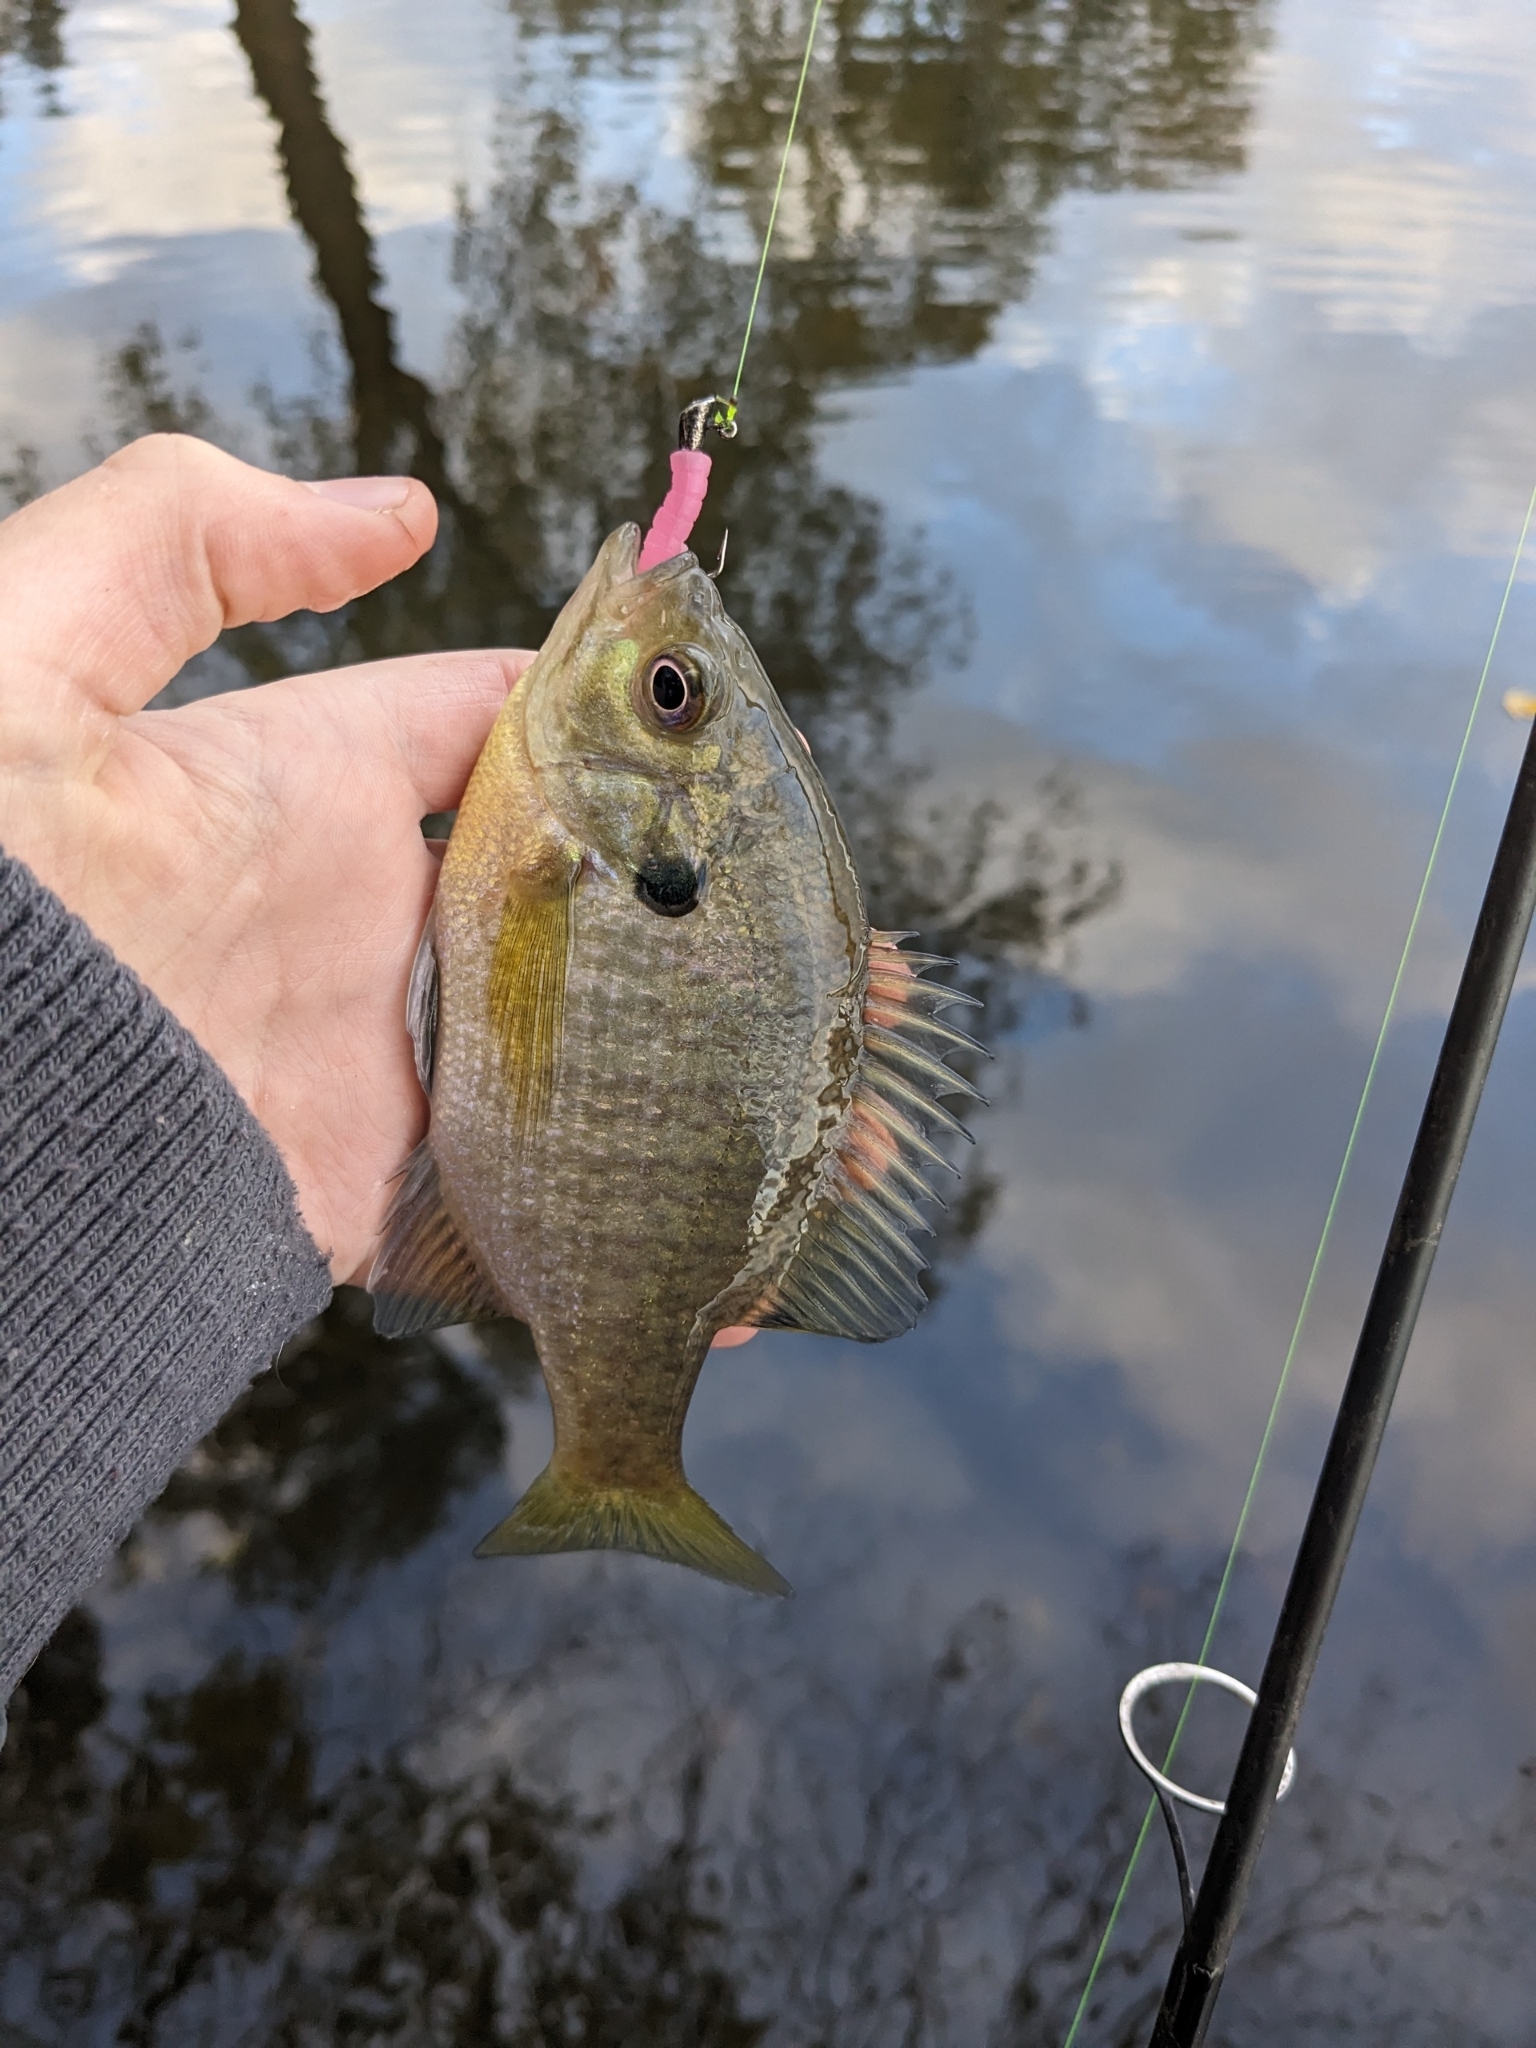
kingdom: Animalia
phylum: Chordata
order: Perciformes
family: Centrarchidae
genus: Lepomis
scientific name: Lepomis macrochirus
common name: Bluegill
